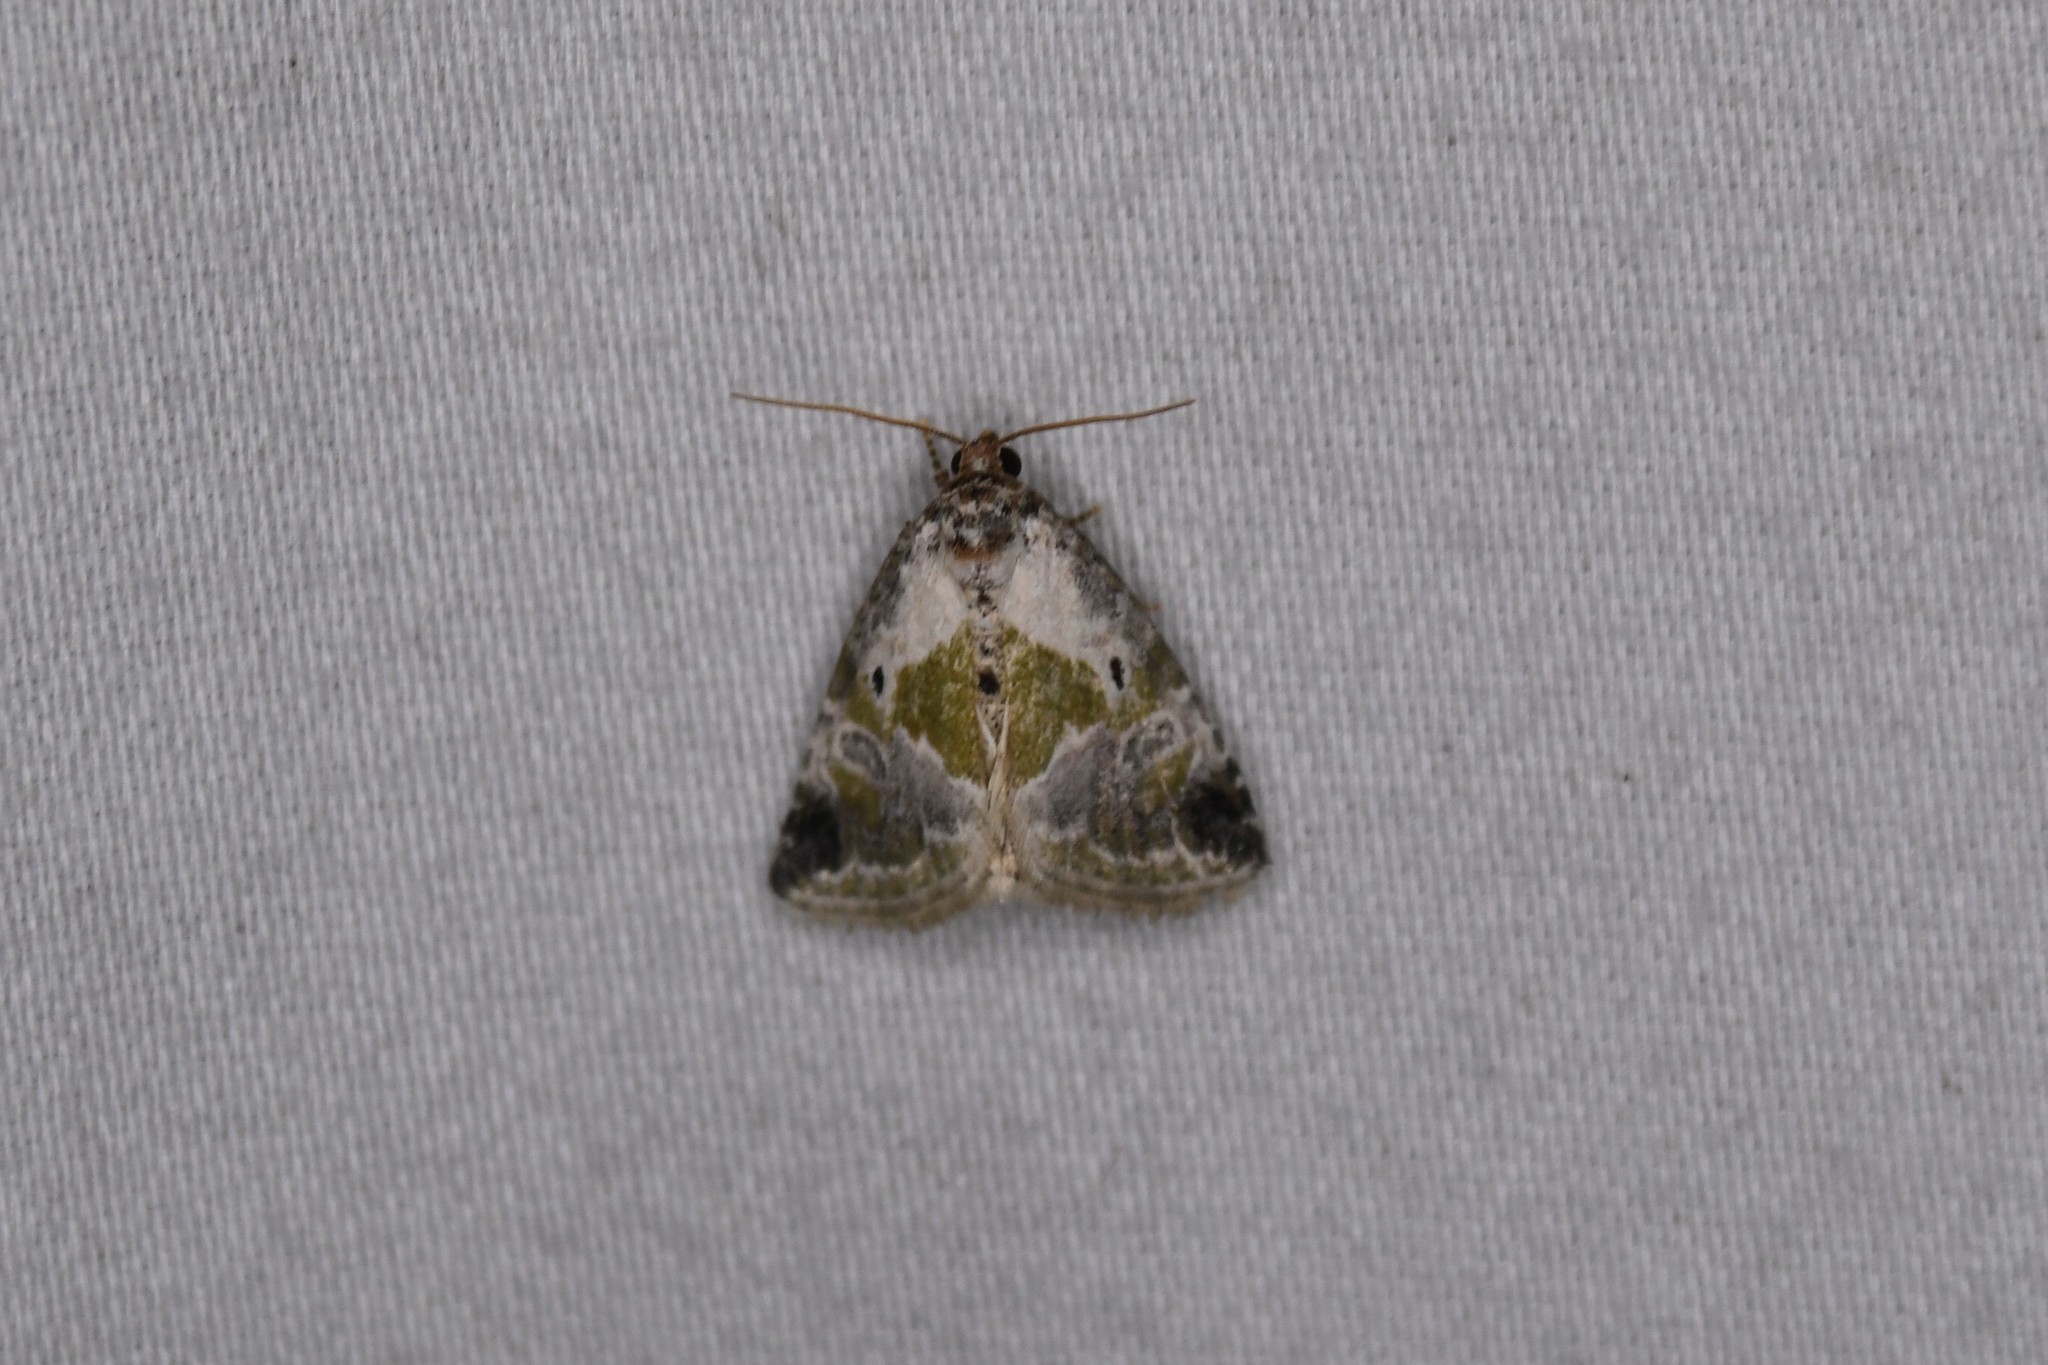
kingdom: Animalia
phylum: Arthropoda
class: Insecta
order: Lepidoptera
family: Noctuidae
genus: Maliattha
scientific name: Maliattha synochitis
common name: Black-dotted glyph
